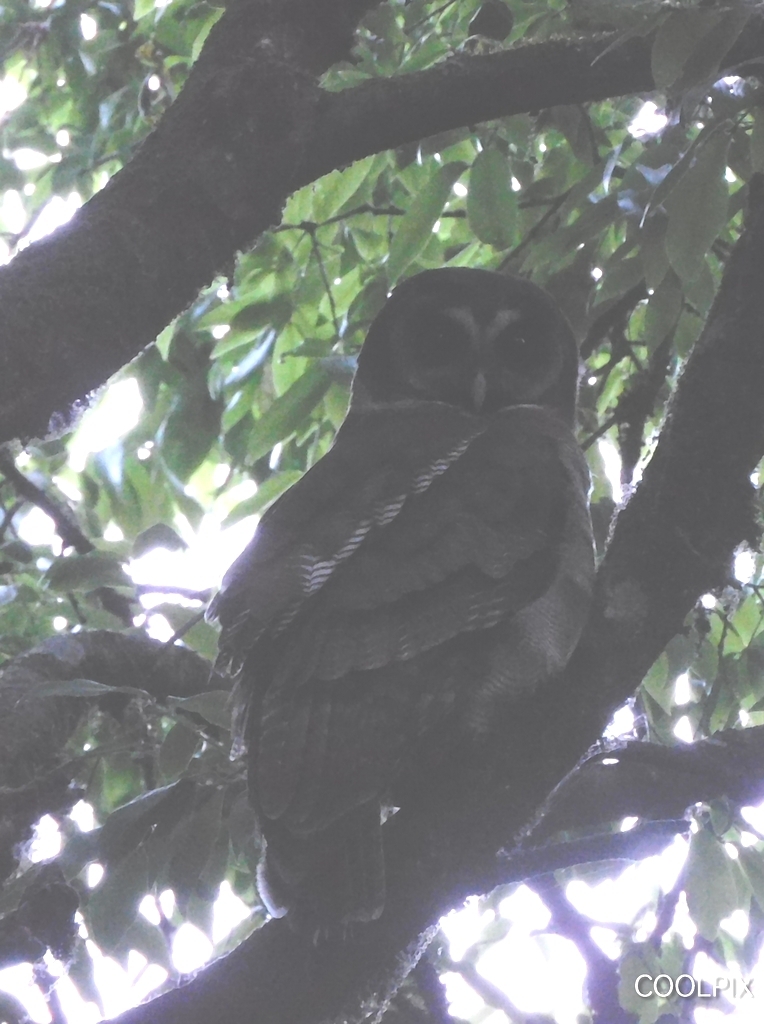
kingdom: Animalia
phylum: Chordata
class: Aves
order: Strigiformes
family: Strigidae
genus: Strix
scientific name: Strix leptogrammica
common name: Brown wood owl
